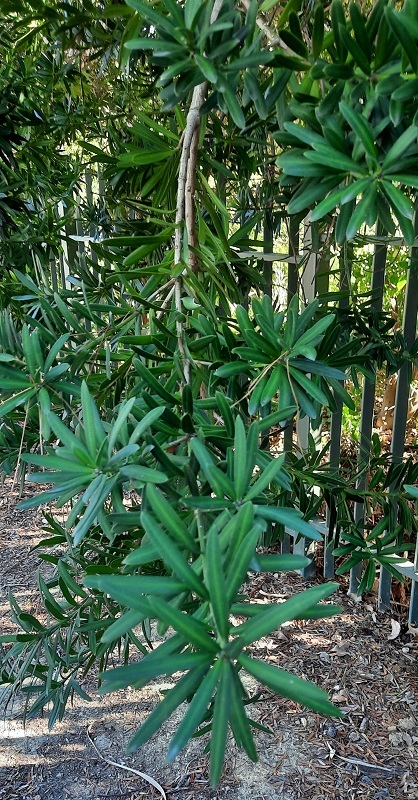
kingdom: Plantae
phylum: Tracheophyta
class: Pinopsida
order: Pinales
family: Podocarpaceae
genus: Podocarpus
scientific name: Podocarpus latifolius
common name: True yellowwood
